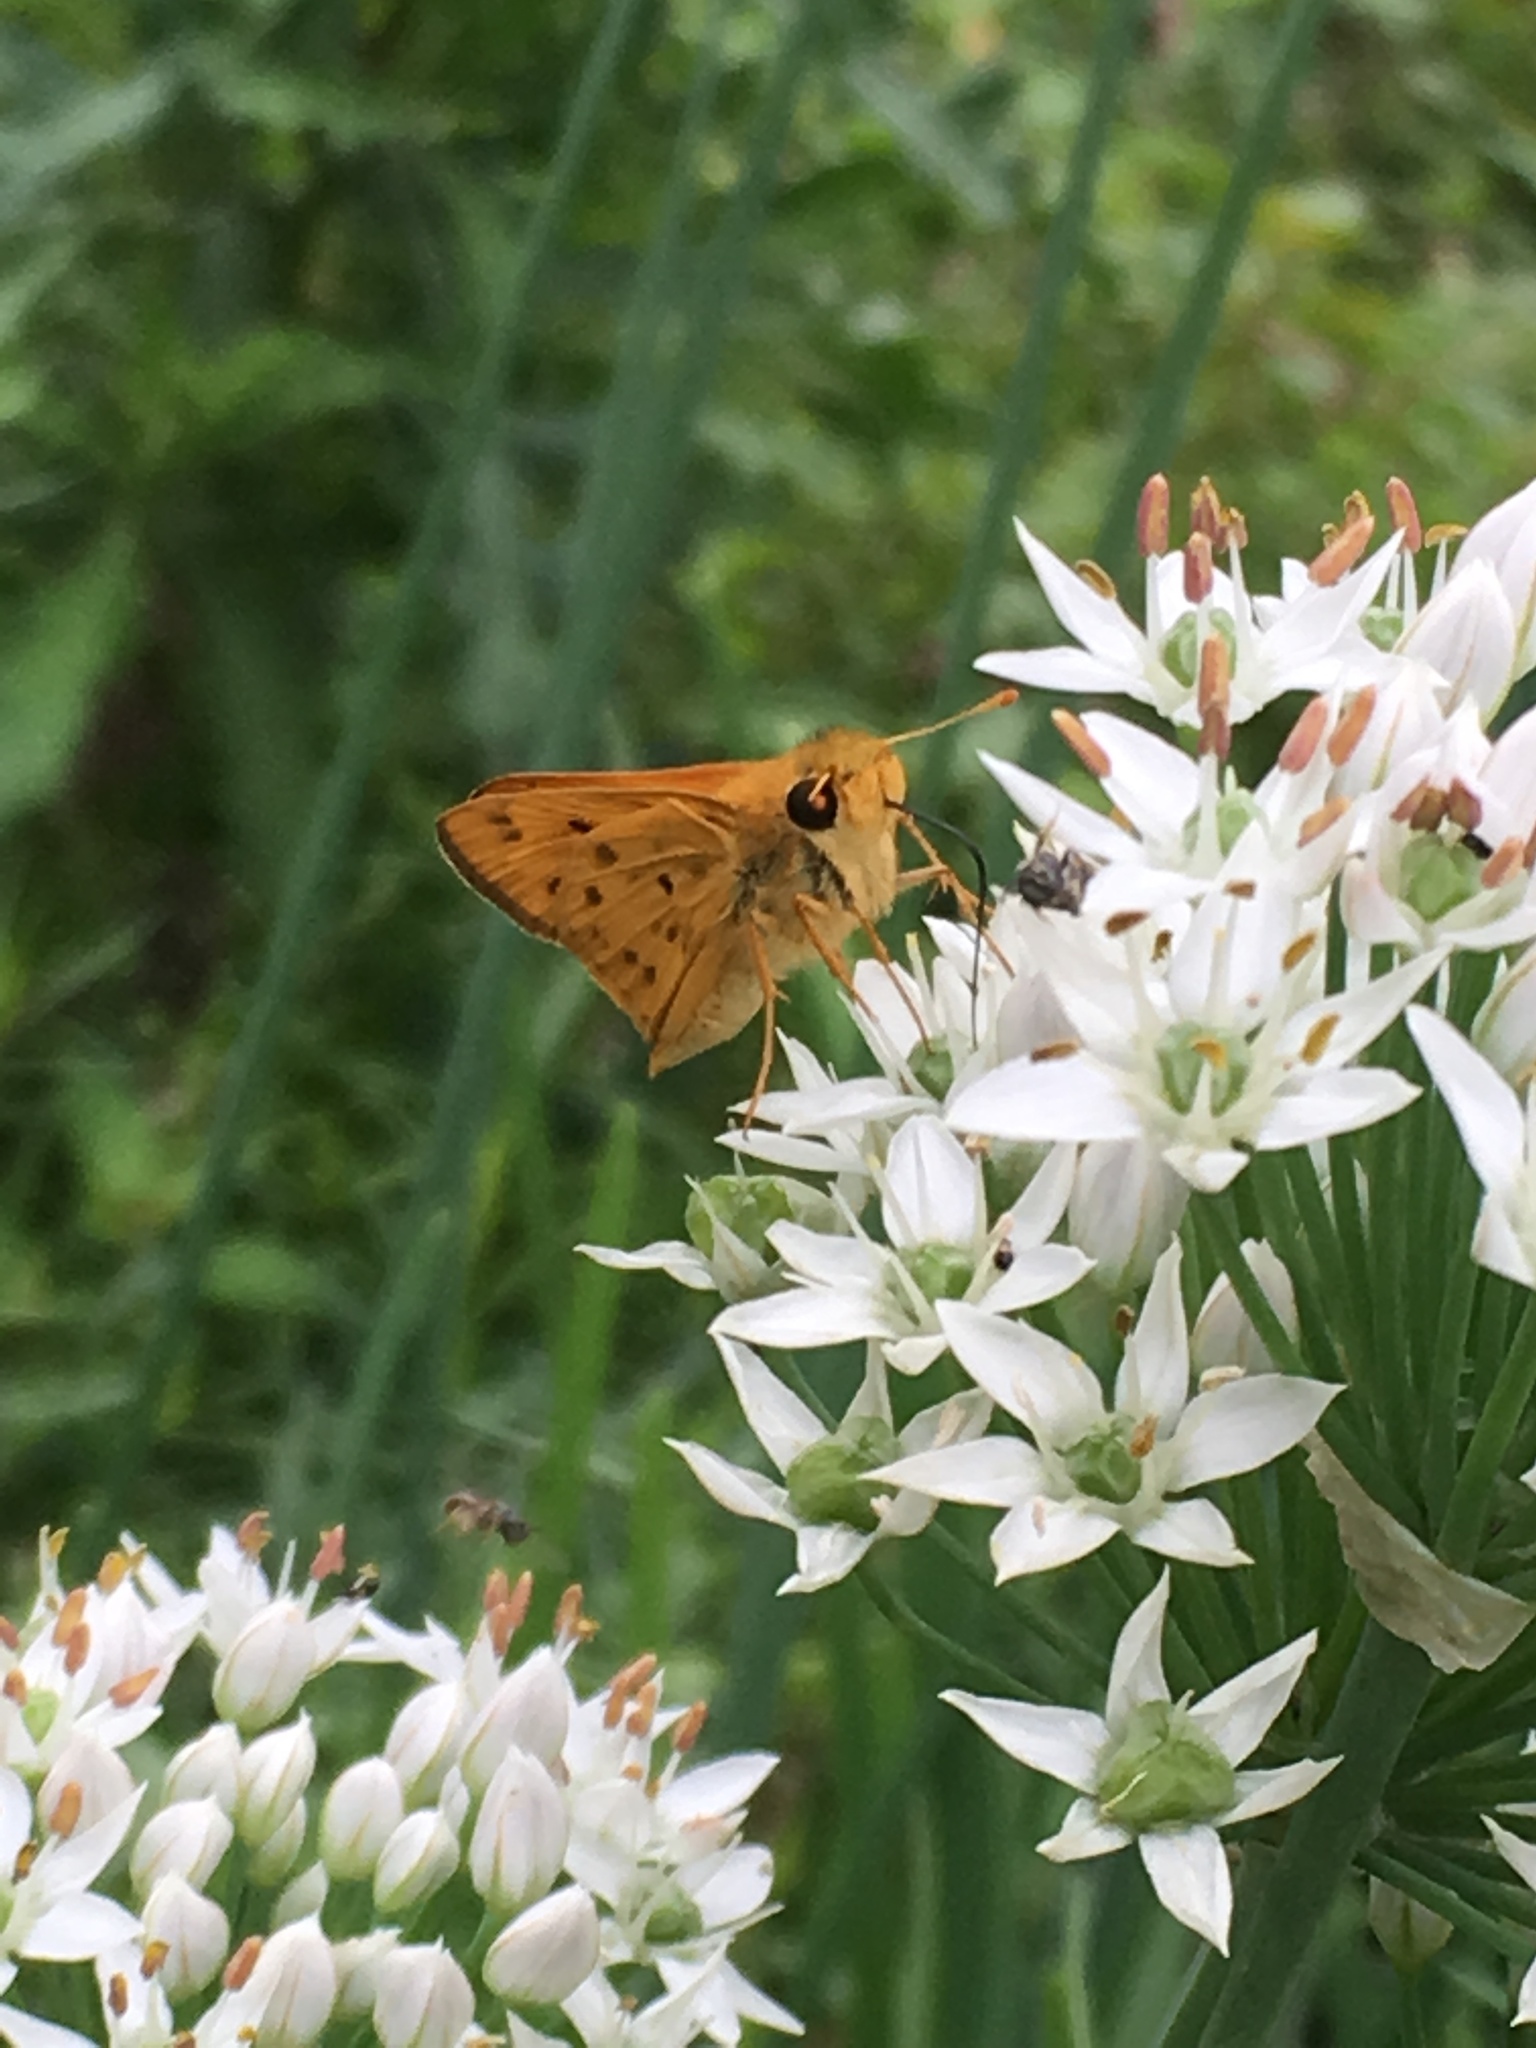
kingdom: Animalia
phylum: Arthropoda
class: Insecta
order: Lepidoptera
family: Hesperiidae
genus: Hylephila
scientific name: Hylephila phyleus
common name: Fiery skipper
